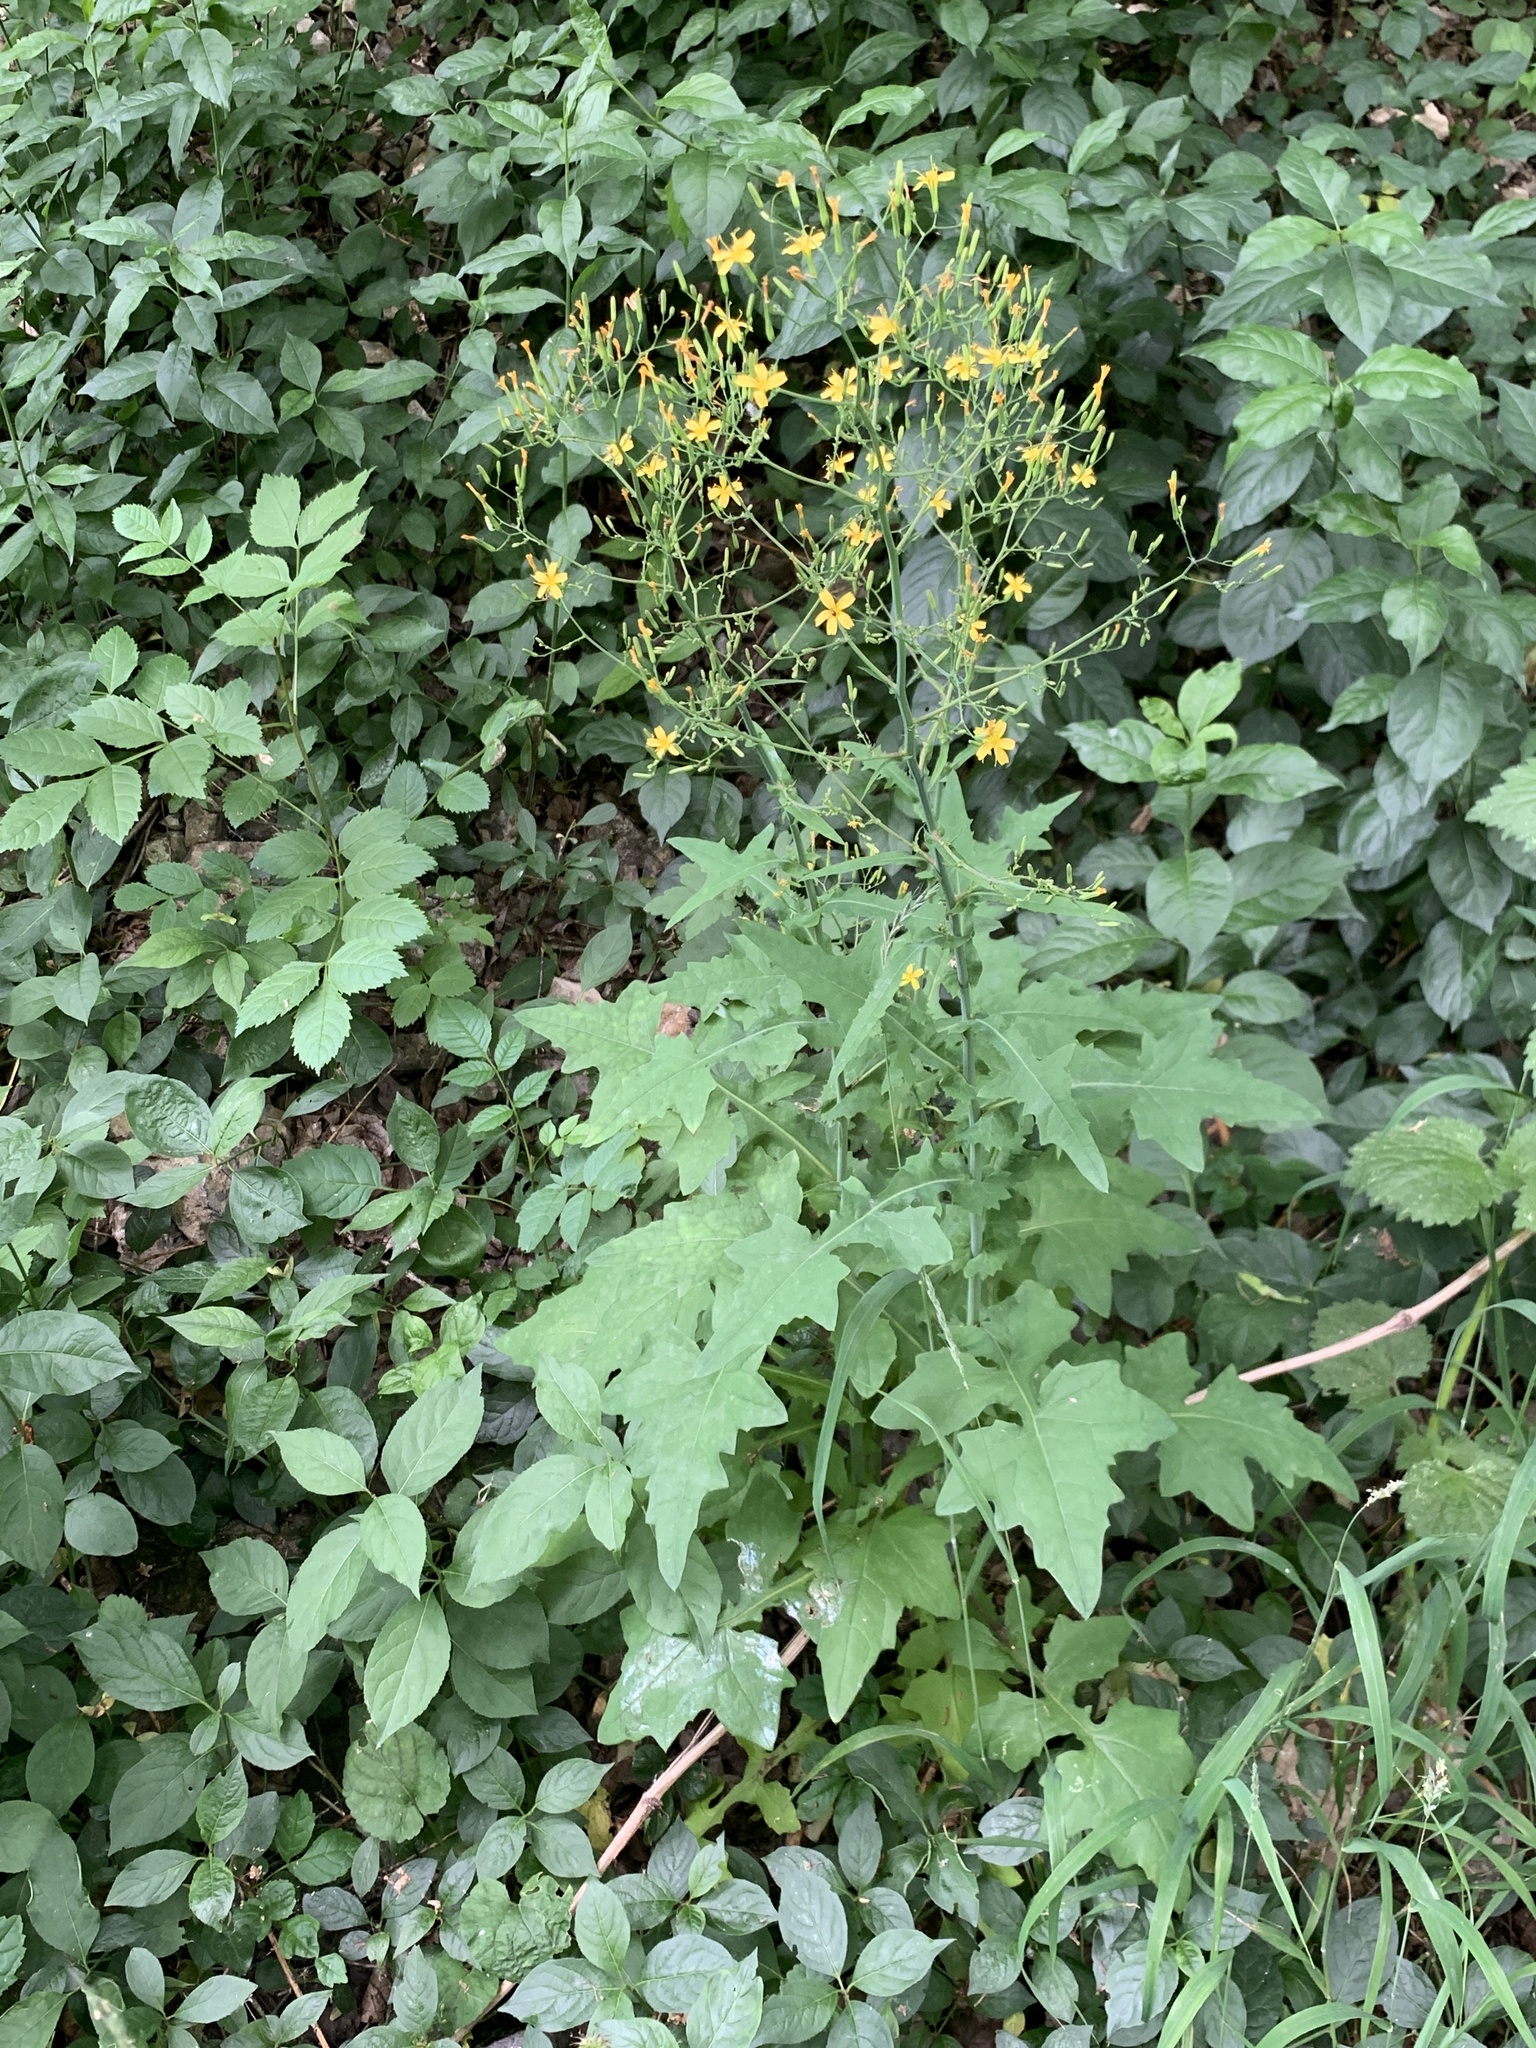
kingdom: Plantae
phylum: Tracheophyta
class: Magnoliopsida
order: Asterales
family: Asteraceae
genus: Mycelis
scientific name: Mycelis muralis
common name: Wall lettuce
